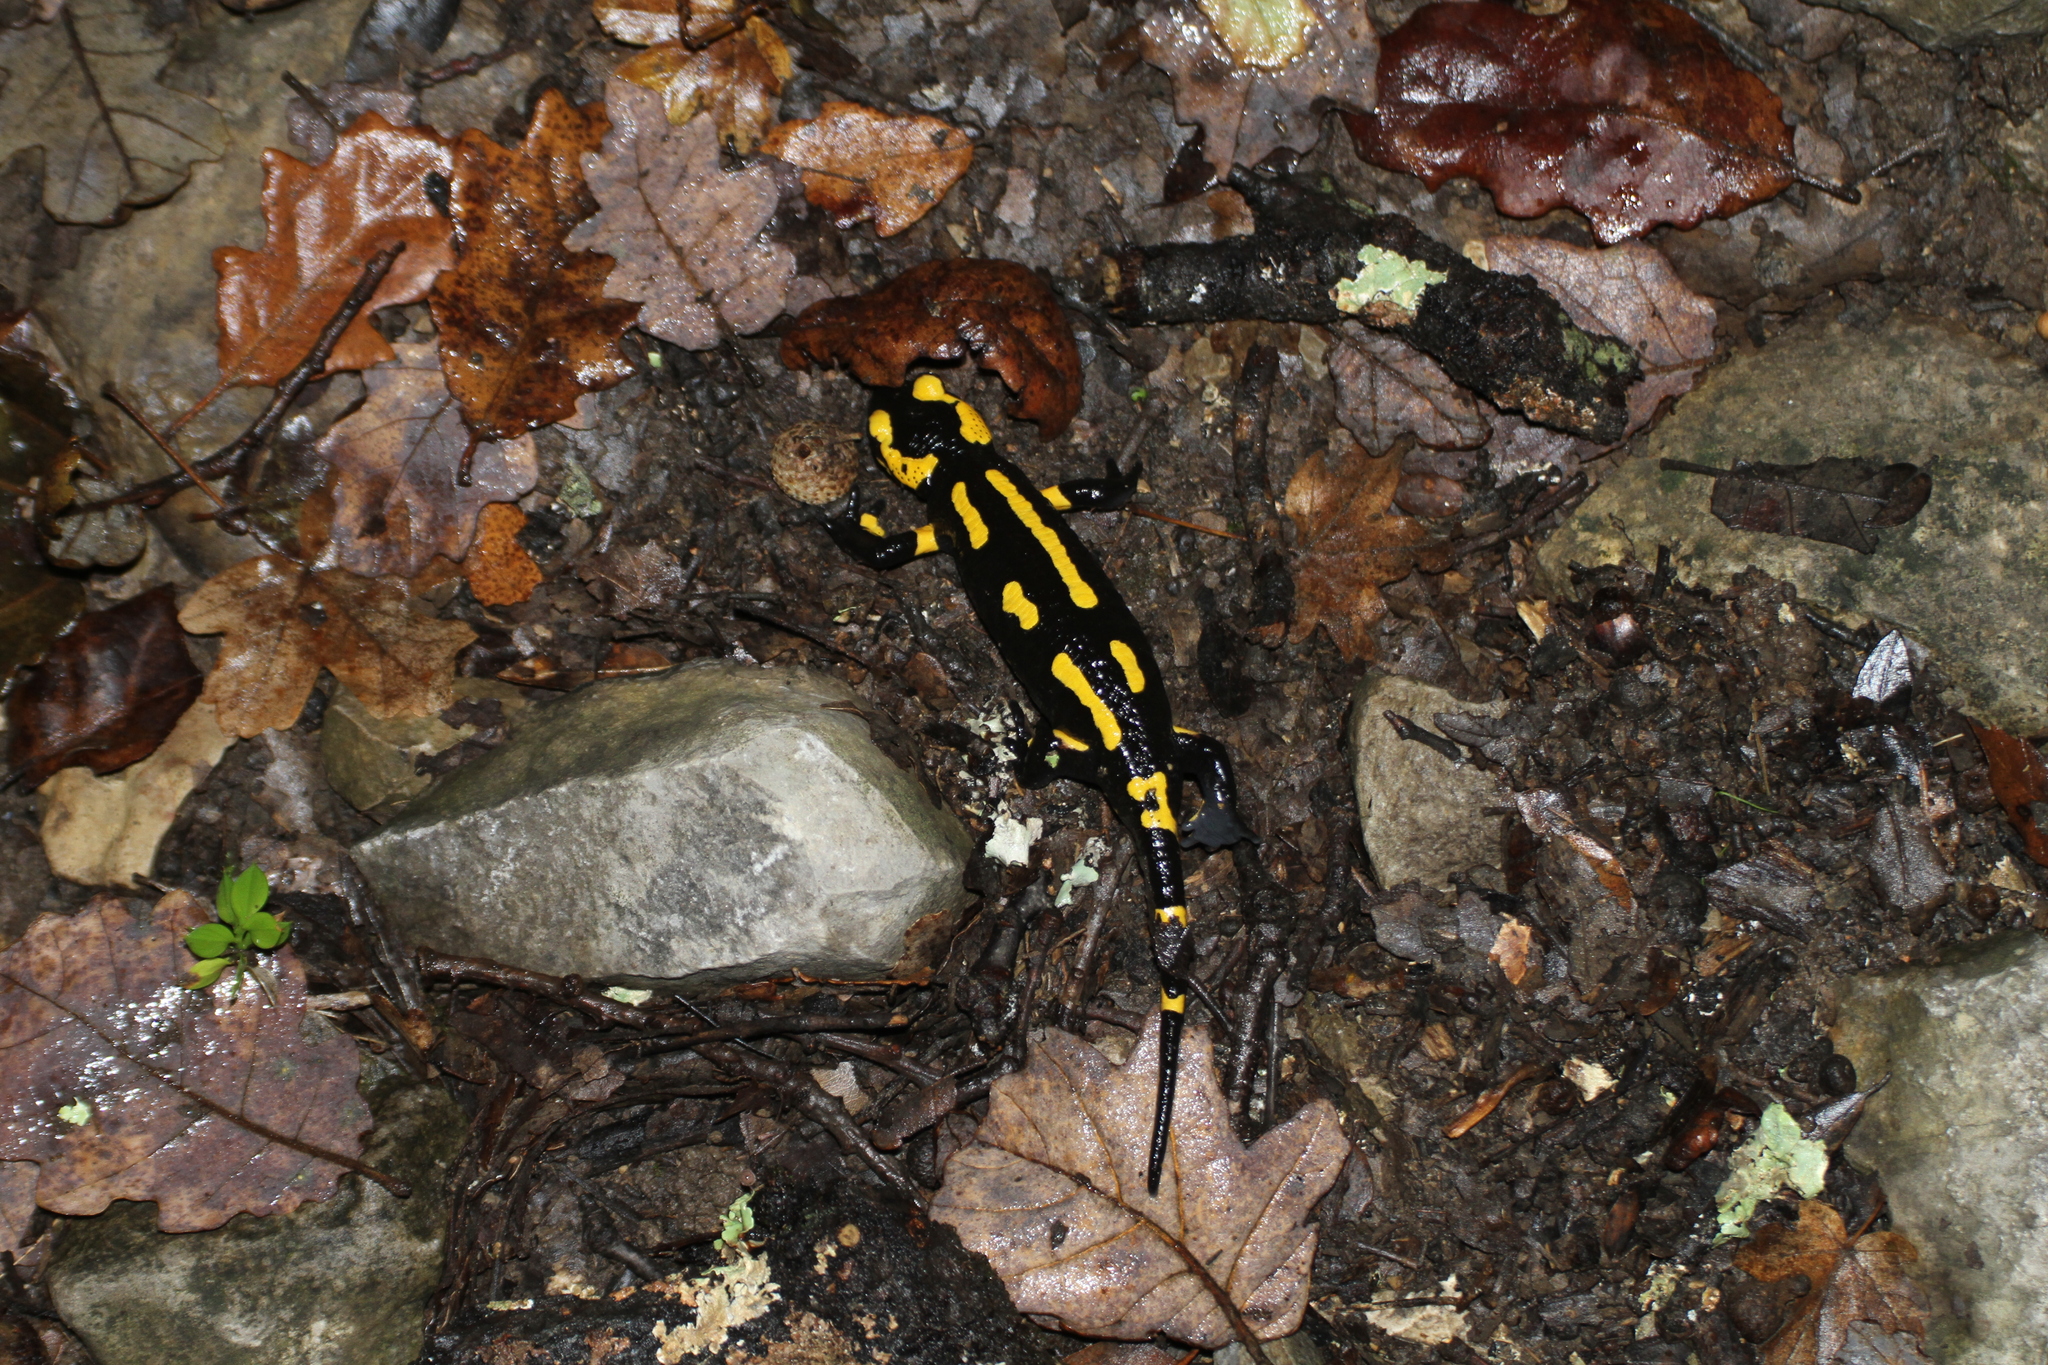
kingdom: Animalia
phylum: Chordata
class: Amphibia
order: Caudata
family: Salamandridae
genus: Salamandra
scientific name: Salamandra salamandra
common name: Fire salamander
